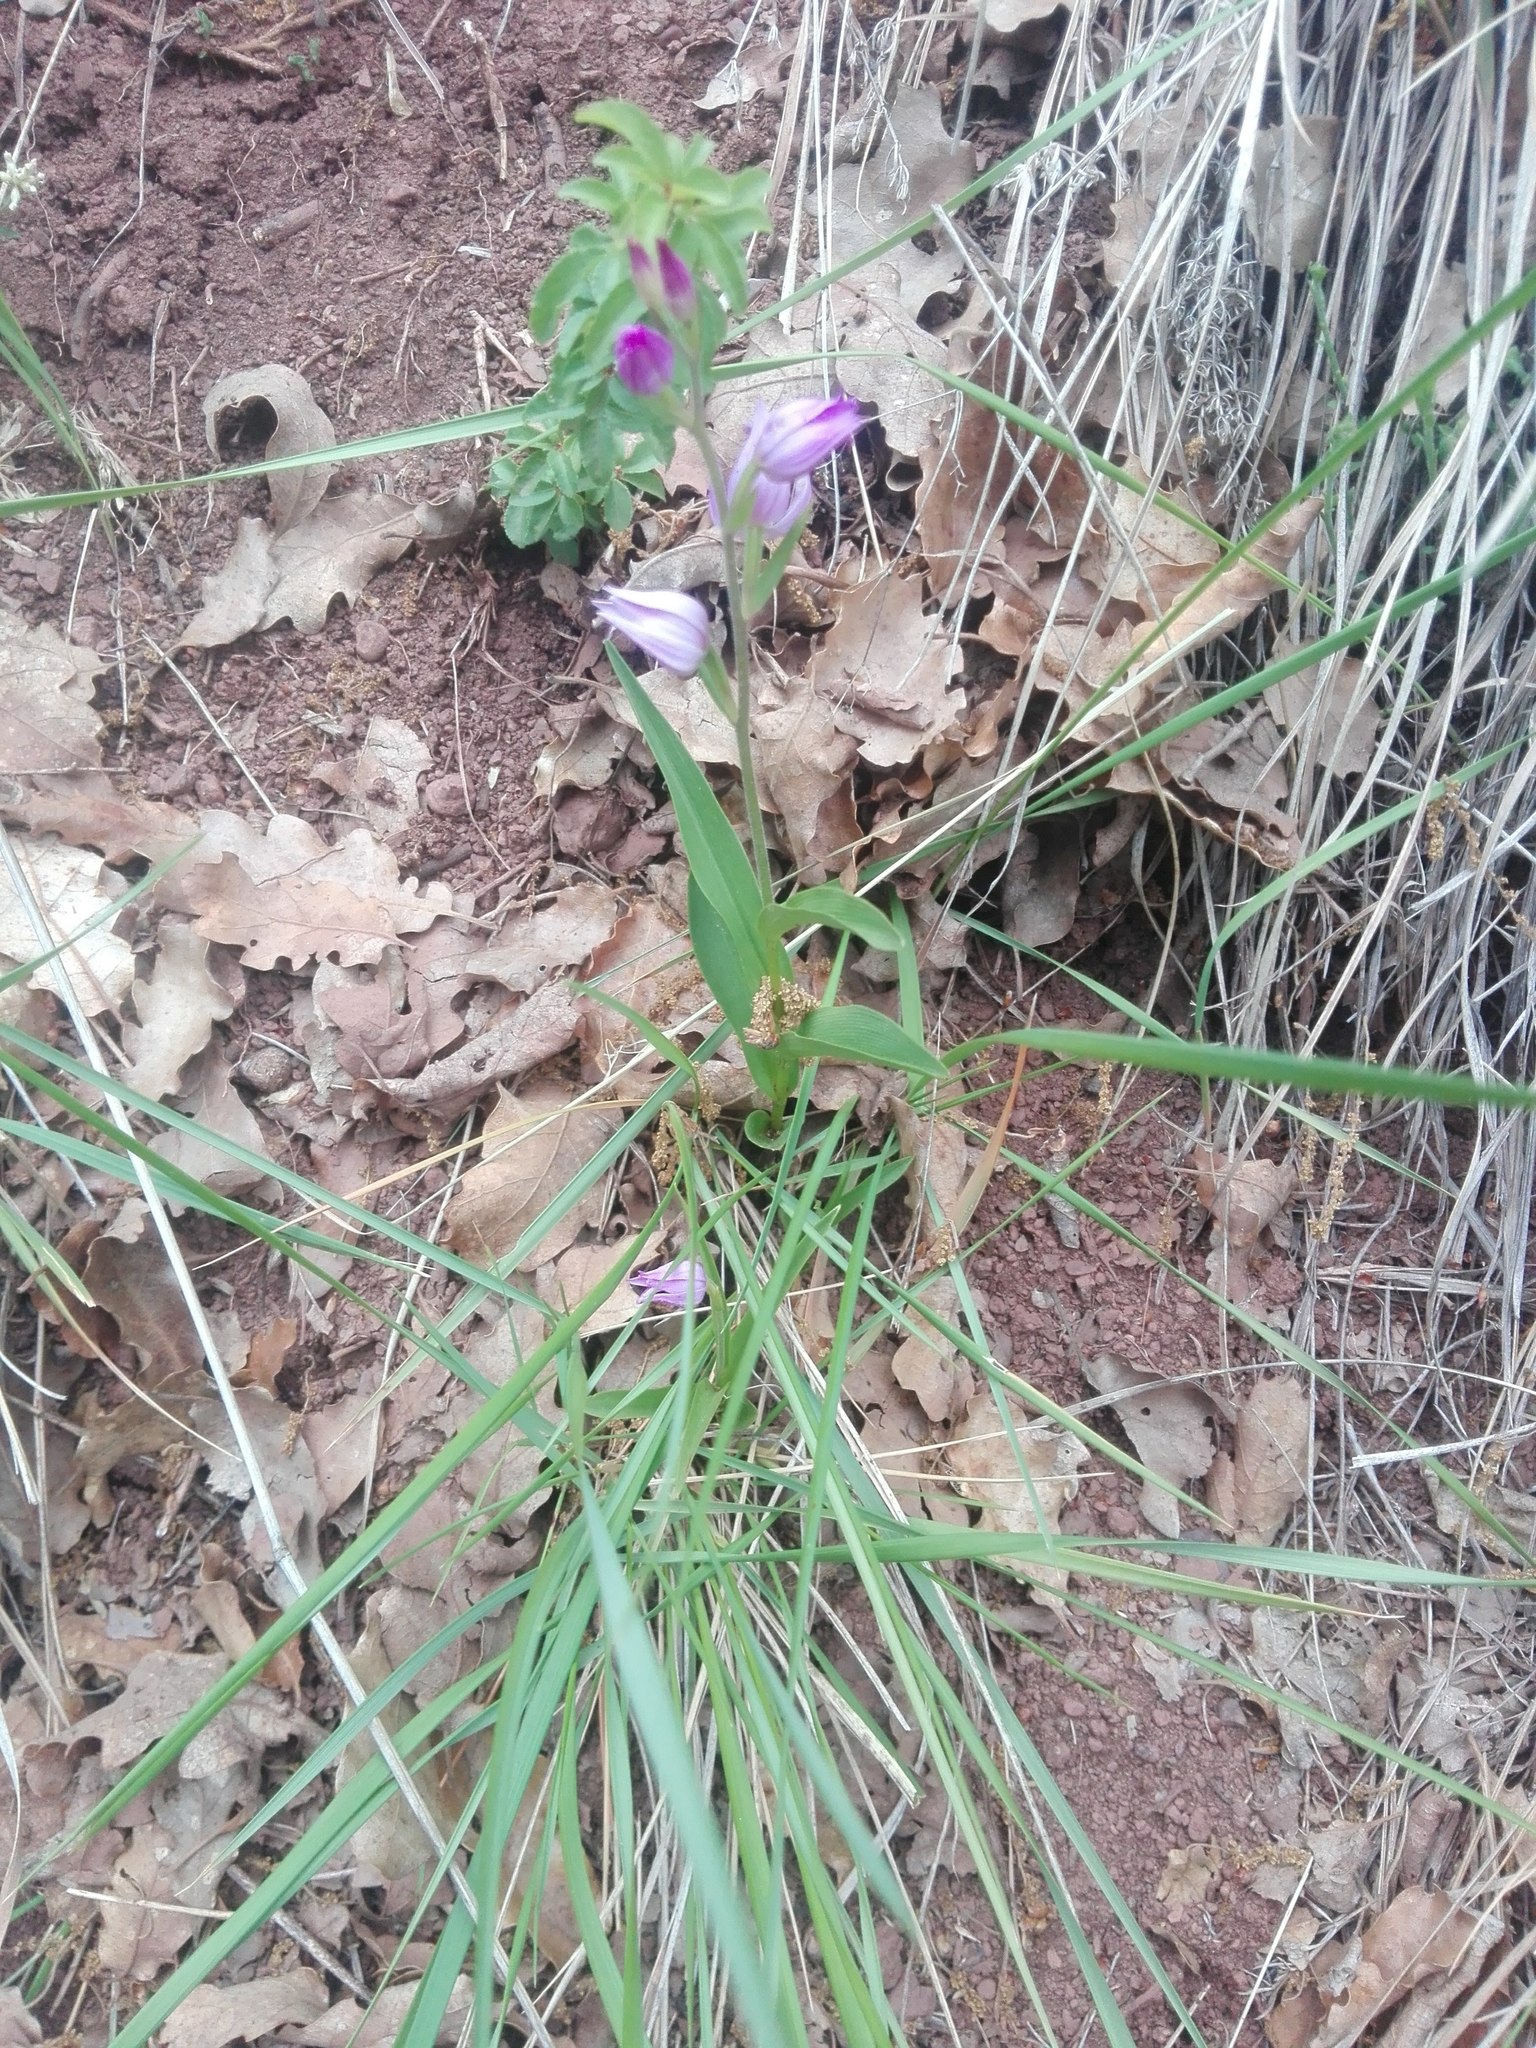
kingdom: Plantae
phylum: Tracheophyta
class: Liliopsida
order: Asparagales
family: Orchidaceae
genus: Cephalanthera
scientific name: Cephalanthera rubra
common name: Red helleborine
